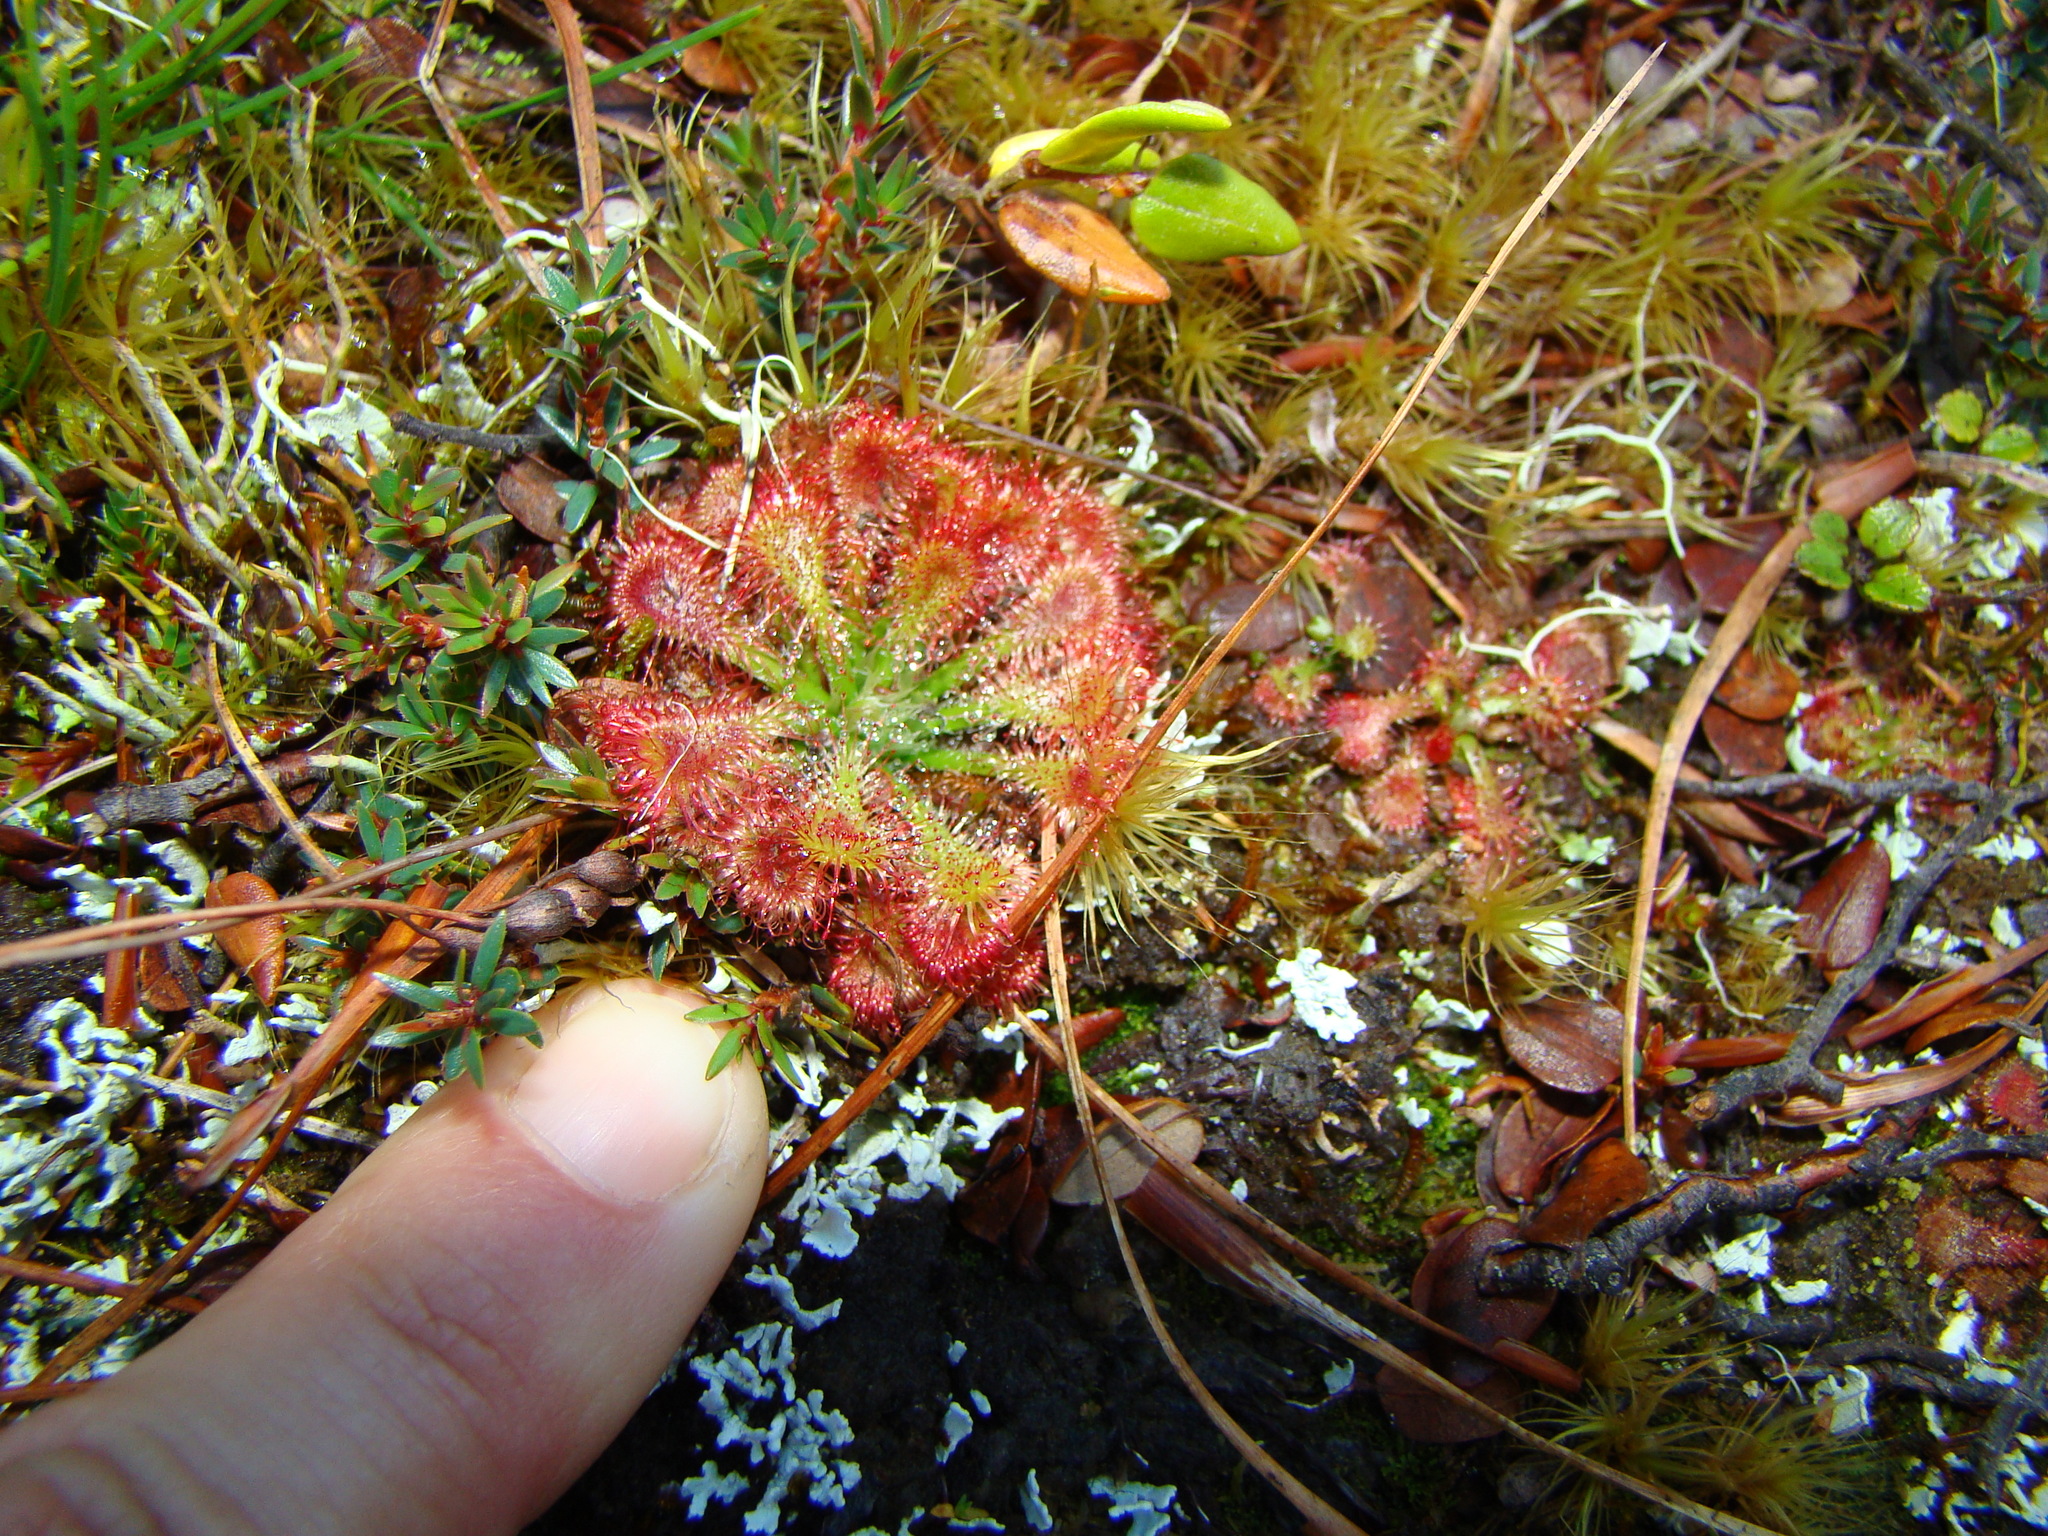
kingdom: Plantae
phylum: Tracheophyta
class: Magnoliopsida
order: Caryophyllales
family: Droseraceae
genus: Drosera
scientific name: Drosera spatulata
